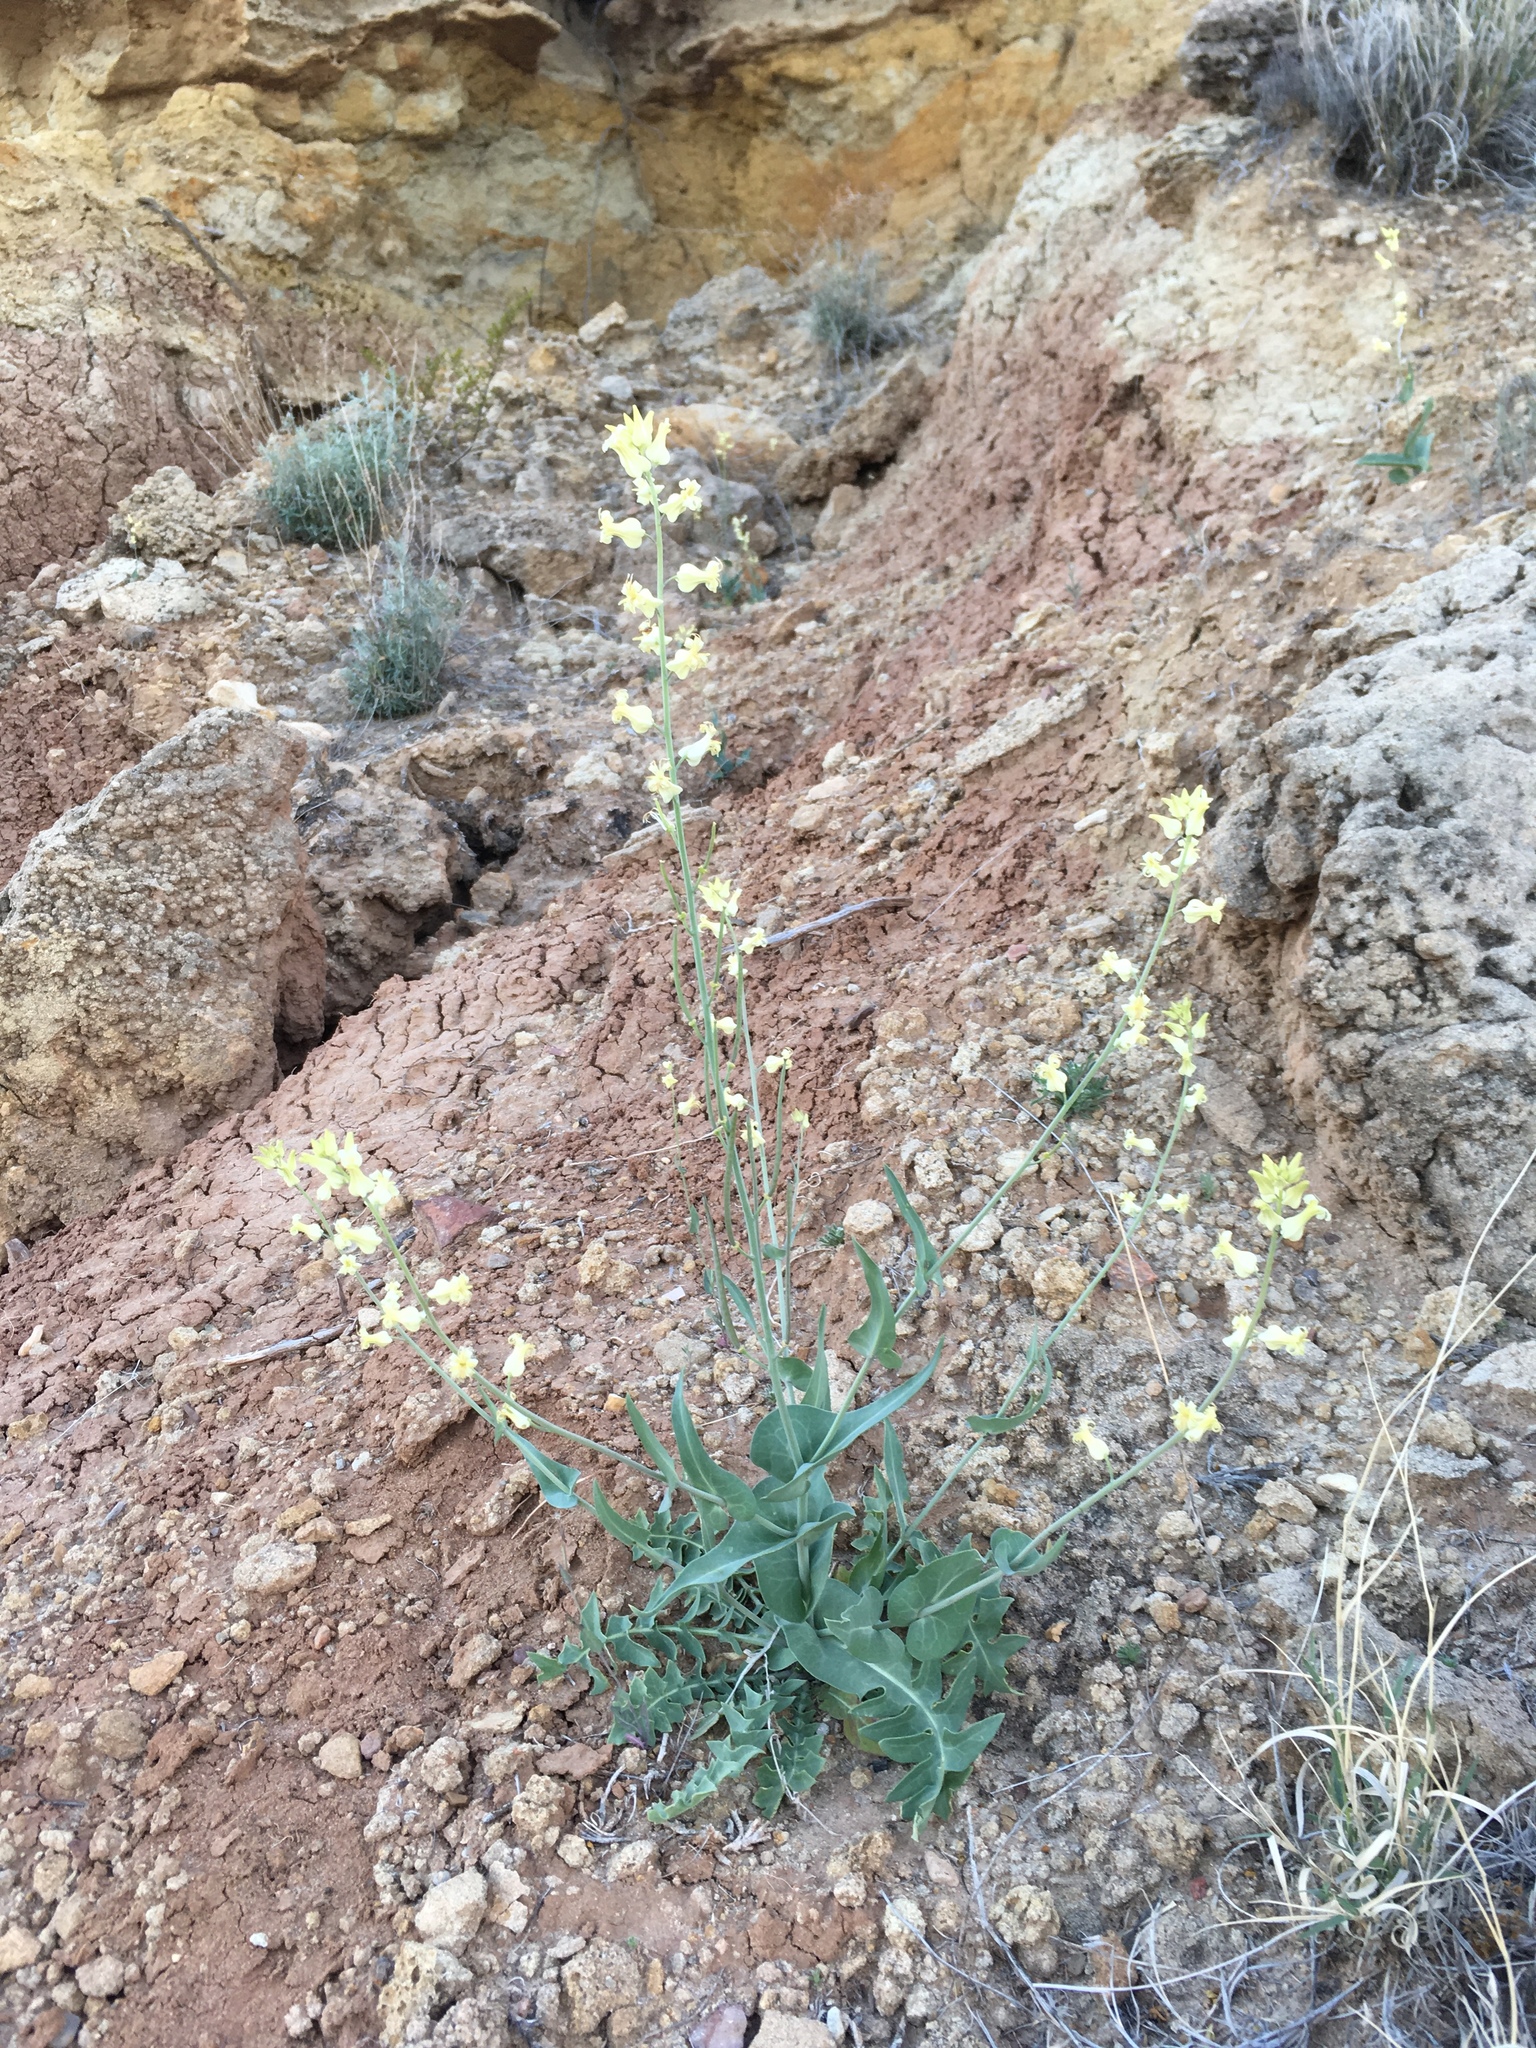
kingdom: Plantae
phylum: Tracheophyta
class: Magnoliopsida
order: Brassicales
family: Brassicaceae
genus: Streptanthus
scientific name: Streptanthus carinatus
